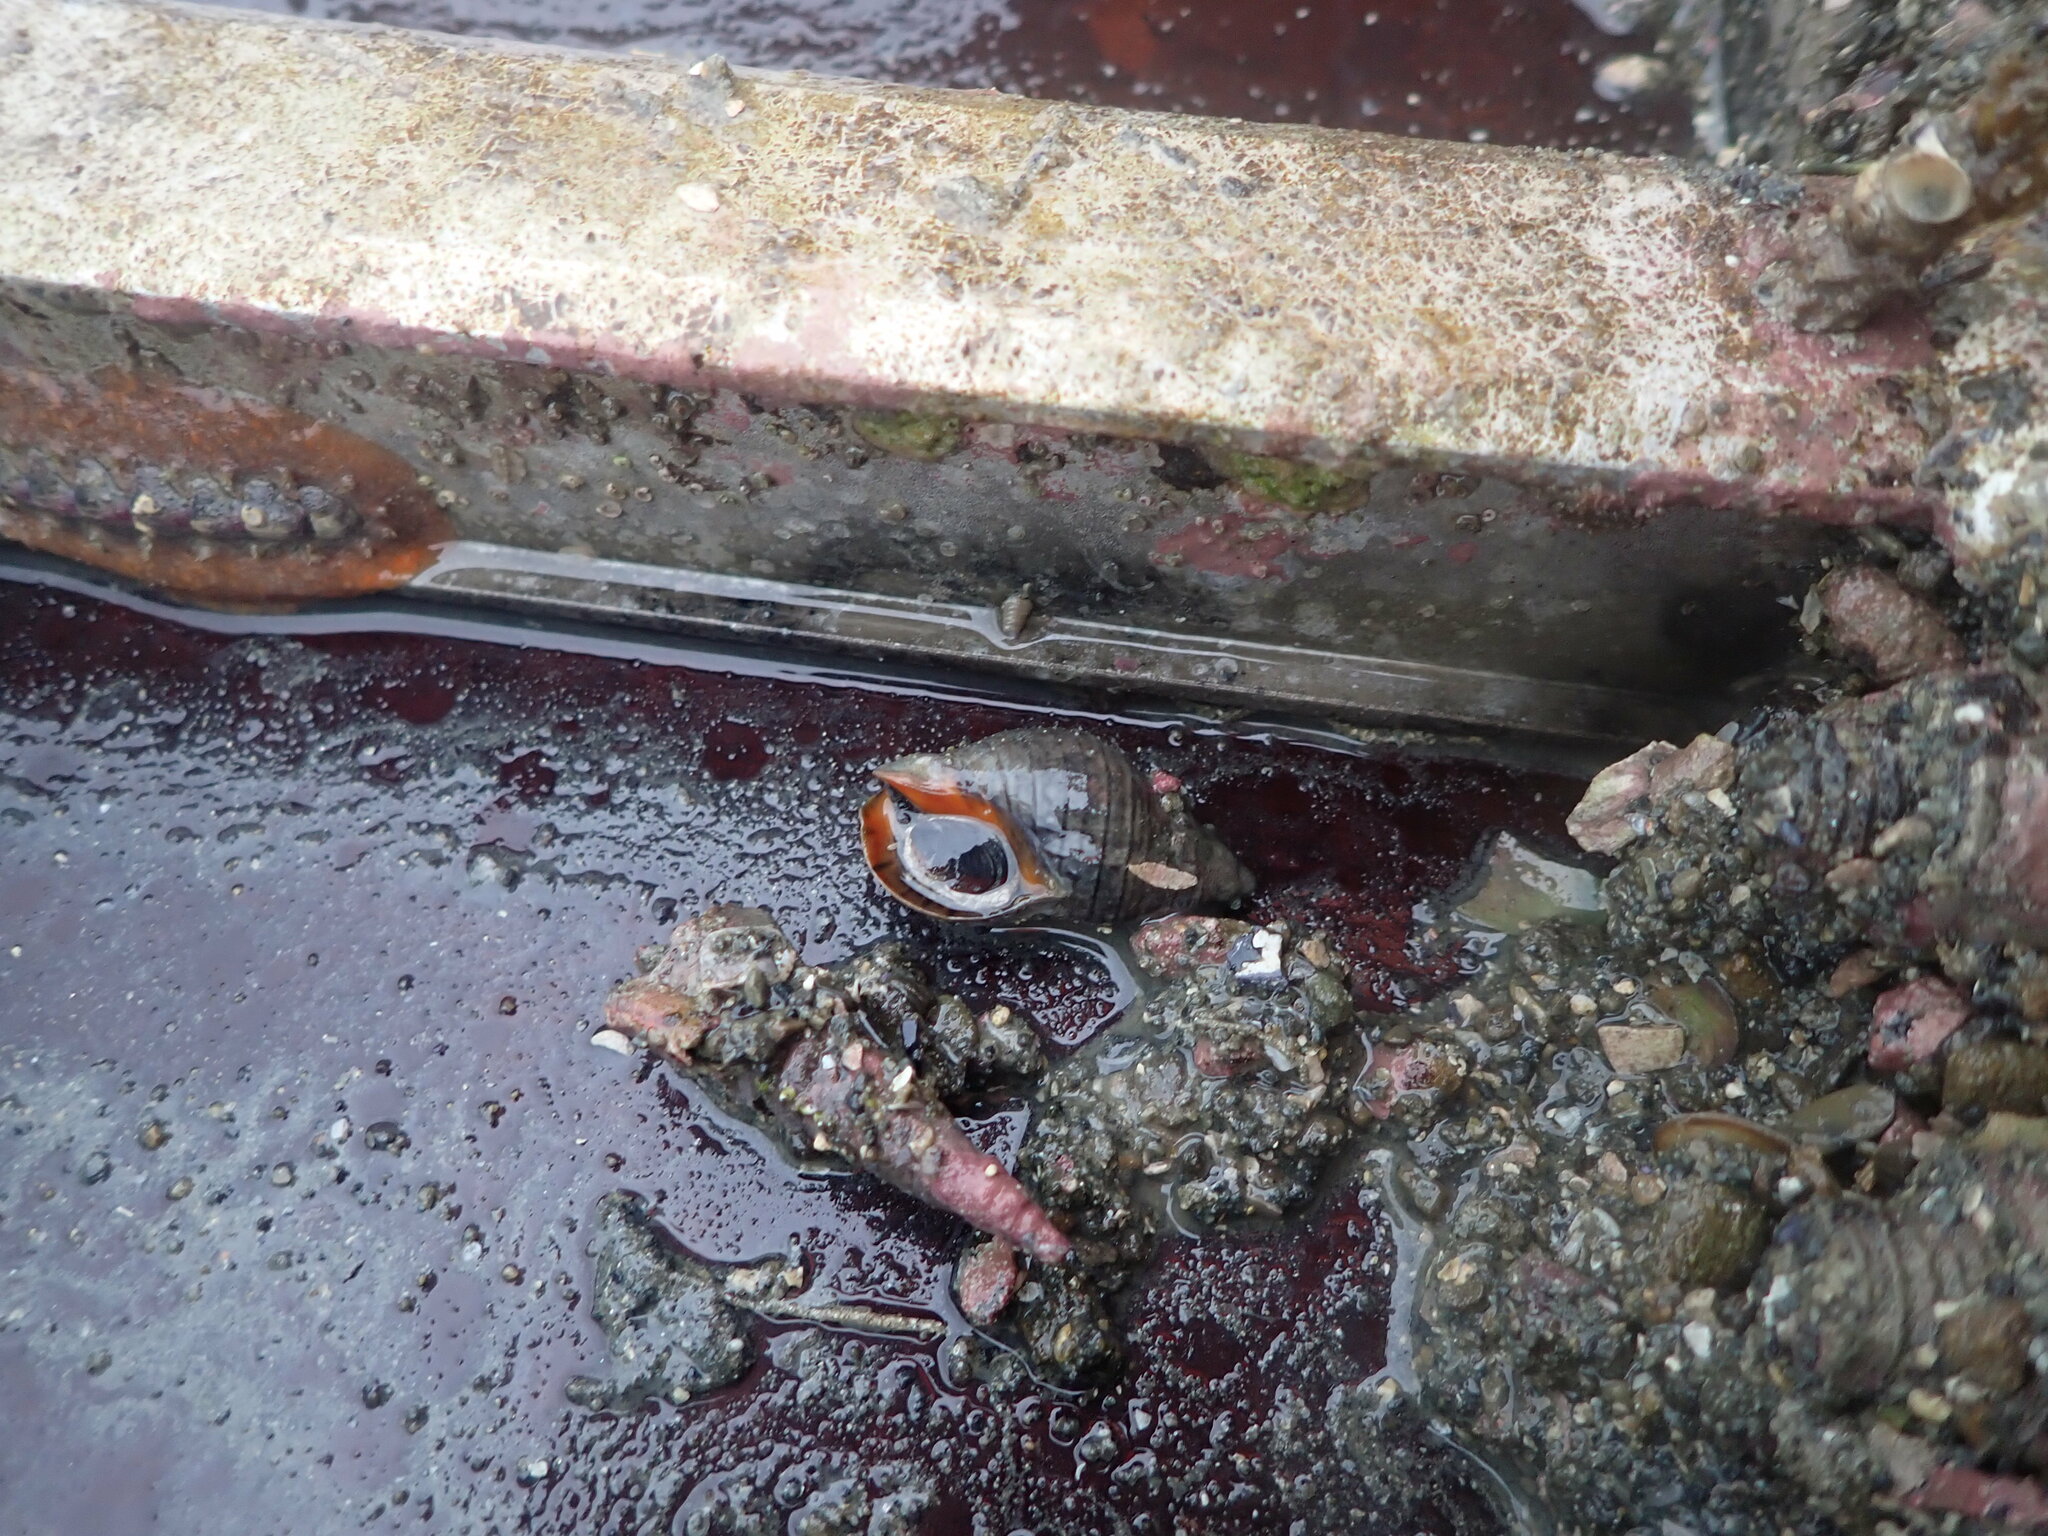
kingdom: Animalia
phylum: Mollusca
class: Gastropoda
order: Neogastropoda
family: Cominellidae
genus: Cominella
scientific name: Cominella virgata
